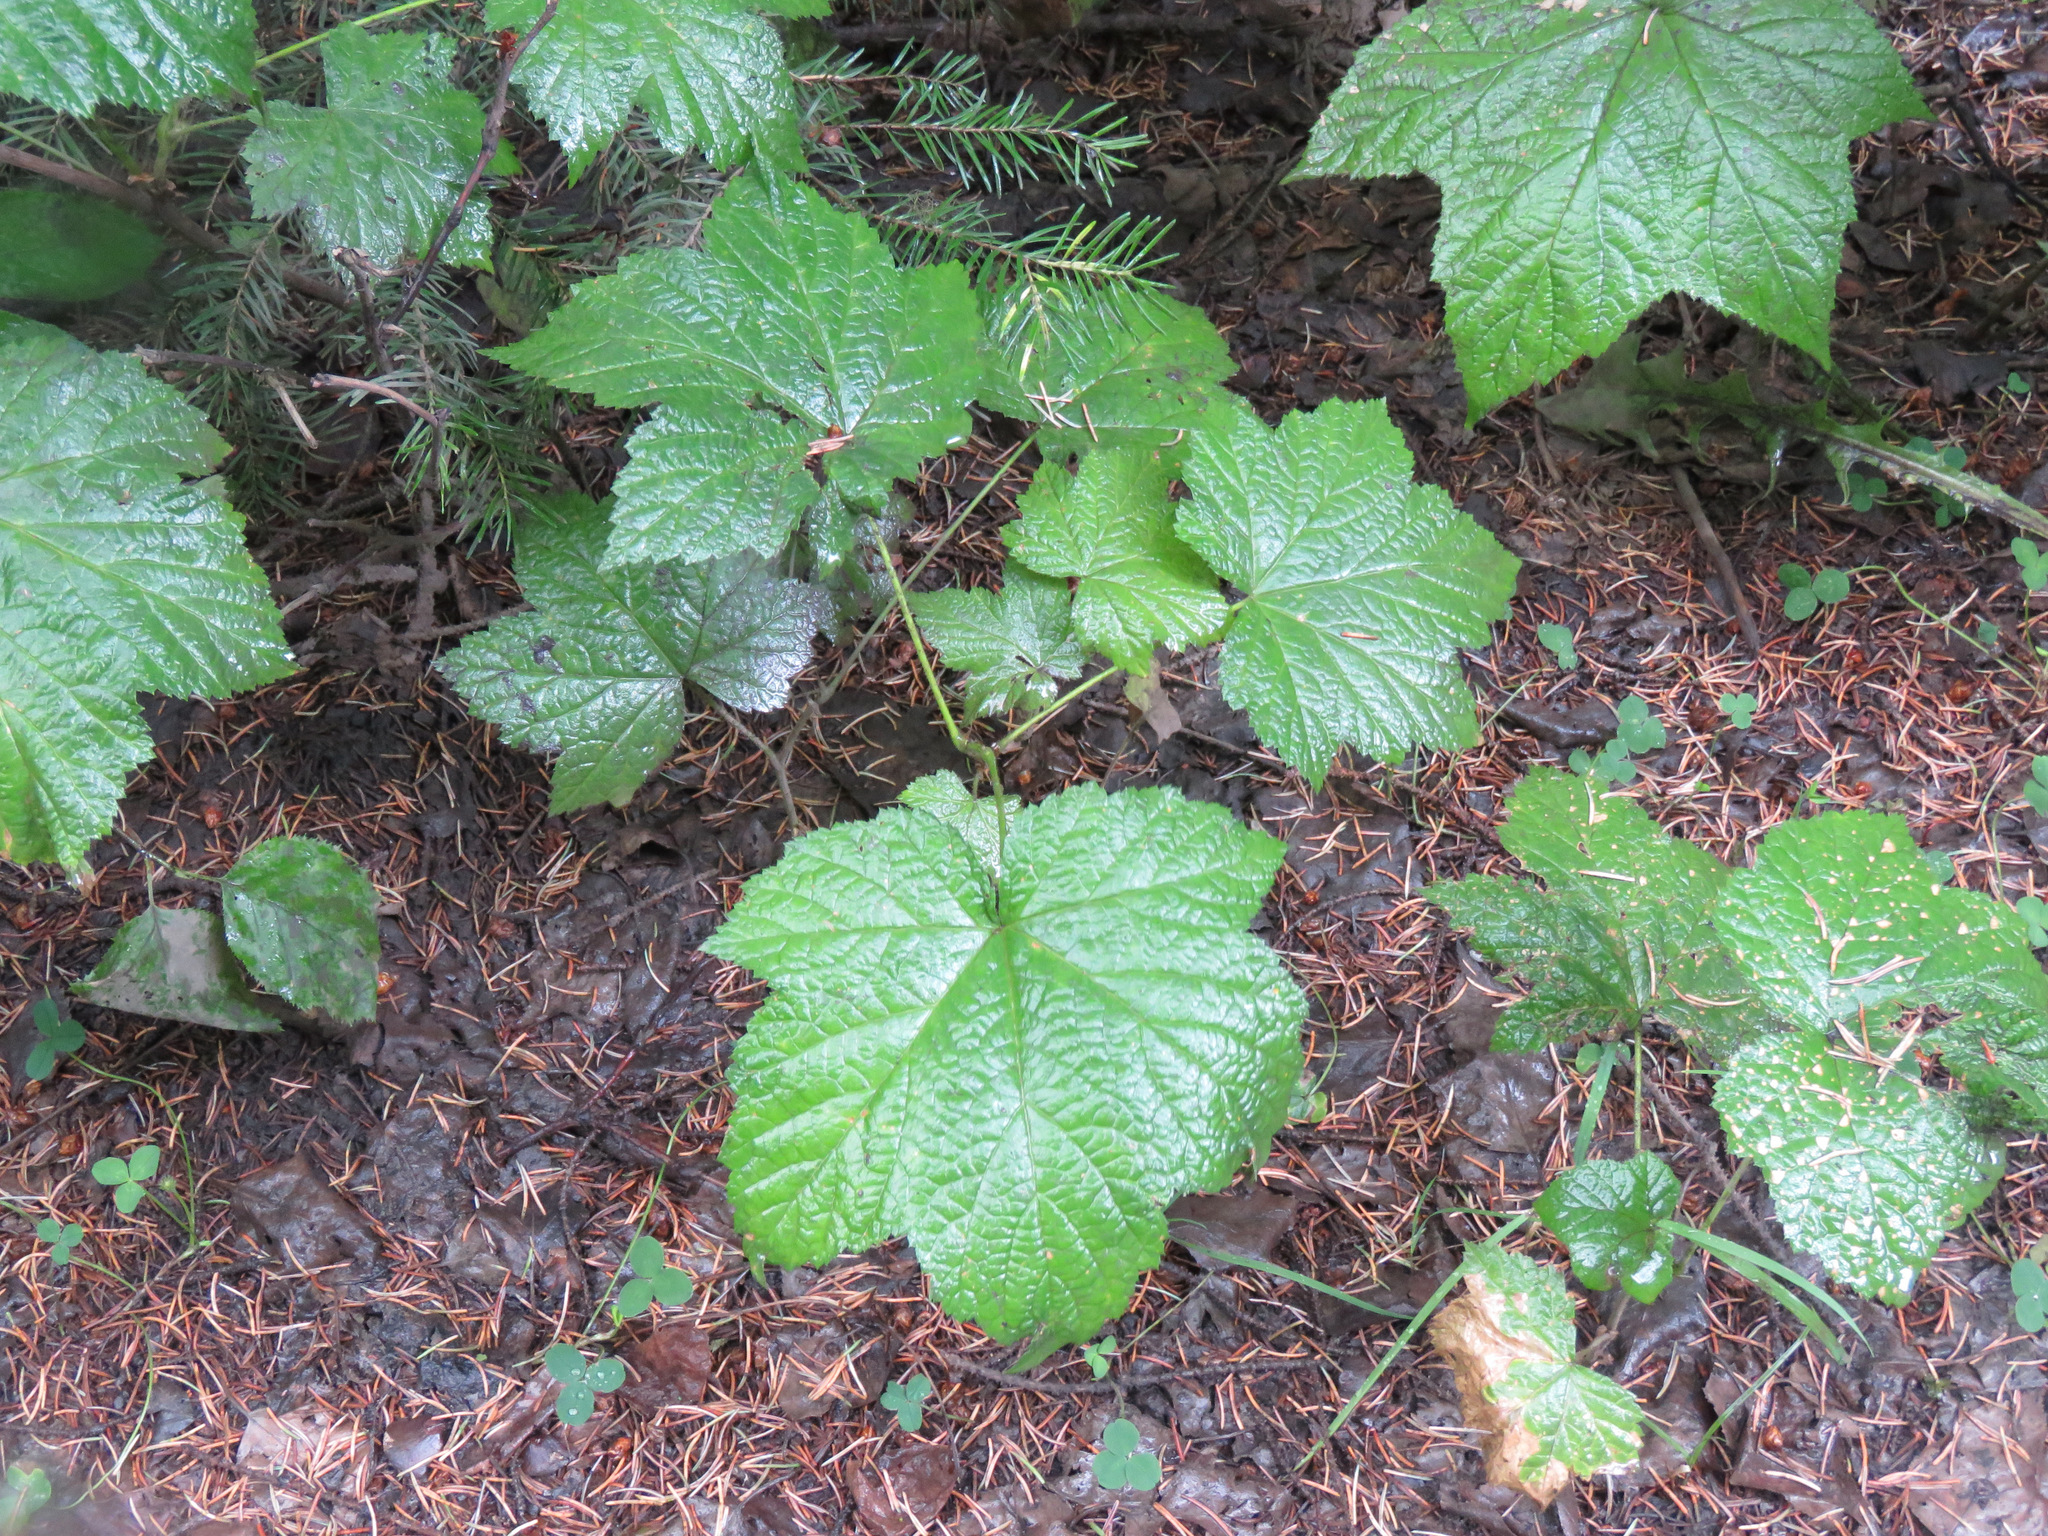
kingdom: Plantae
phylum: Tracheophyta
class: Magnoliopsida
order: Rosales
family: Rosaceae
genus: Rubus
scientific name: Rubus parviflorus
